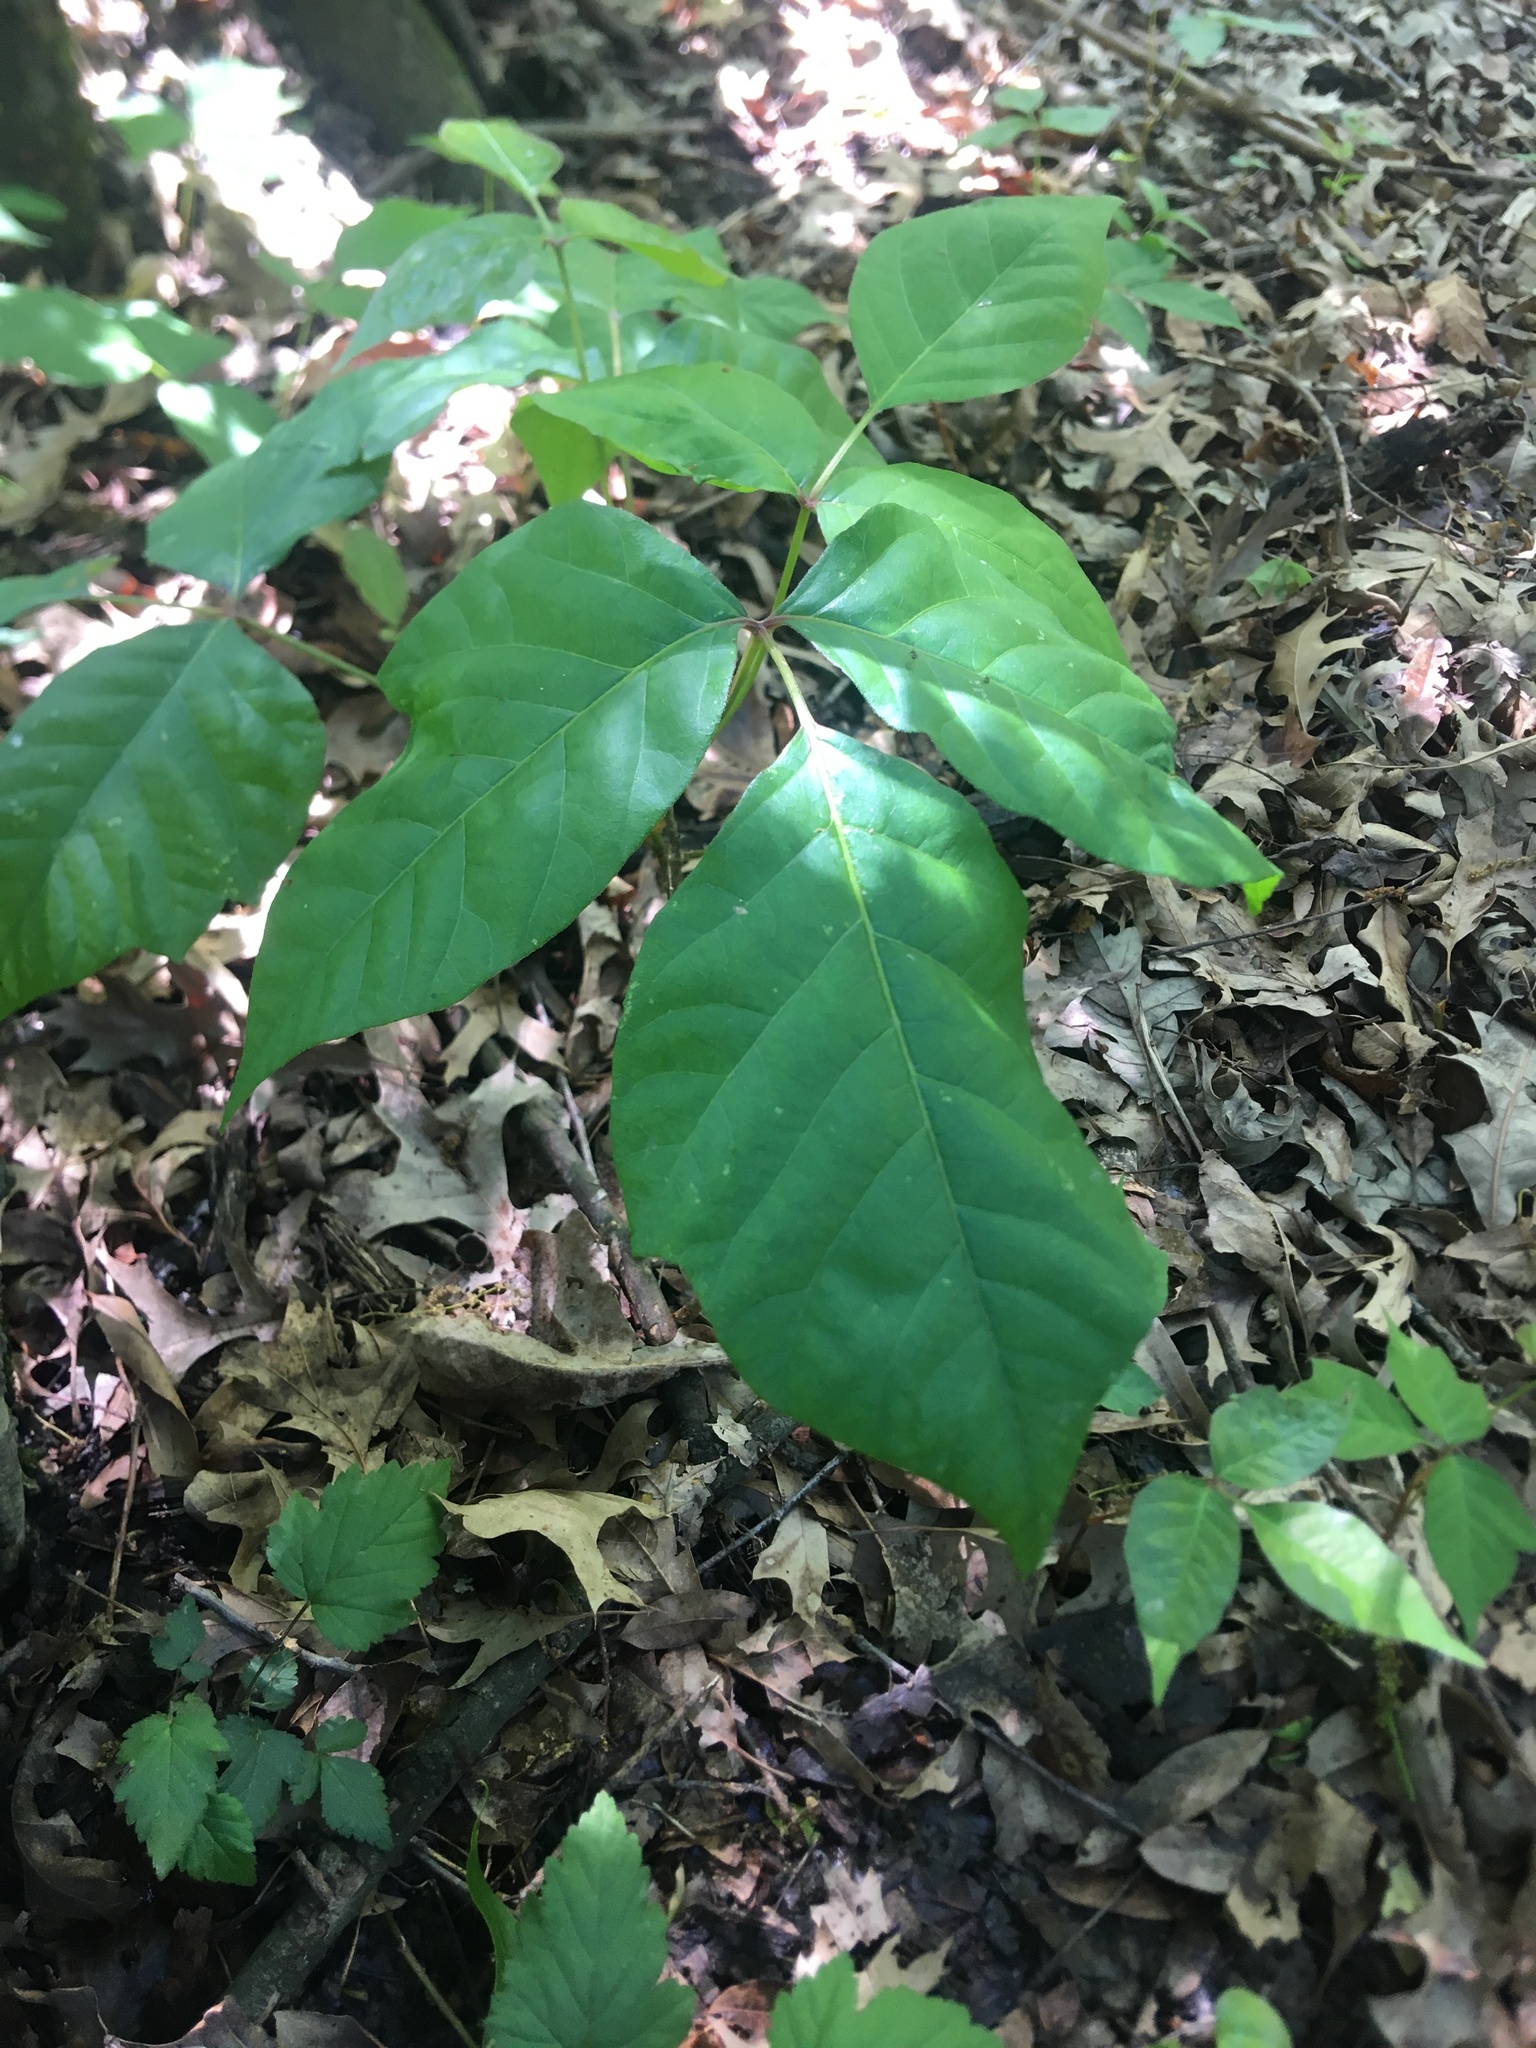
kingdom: Plantae
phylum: Tracheophyta
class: Magnoliopsida
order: Sapindales
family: Anacardiaceae
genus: Toxicodendron
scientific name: Toxicodendron radicans
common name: Poison ivy
